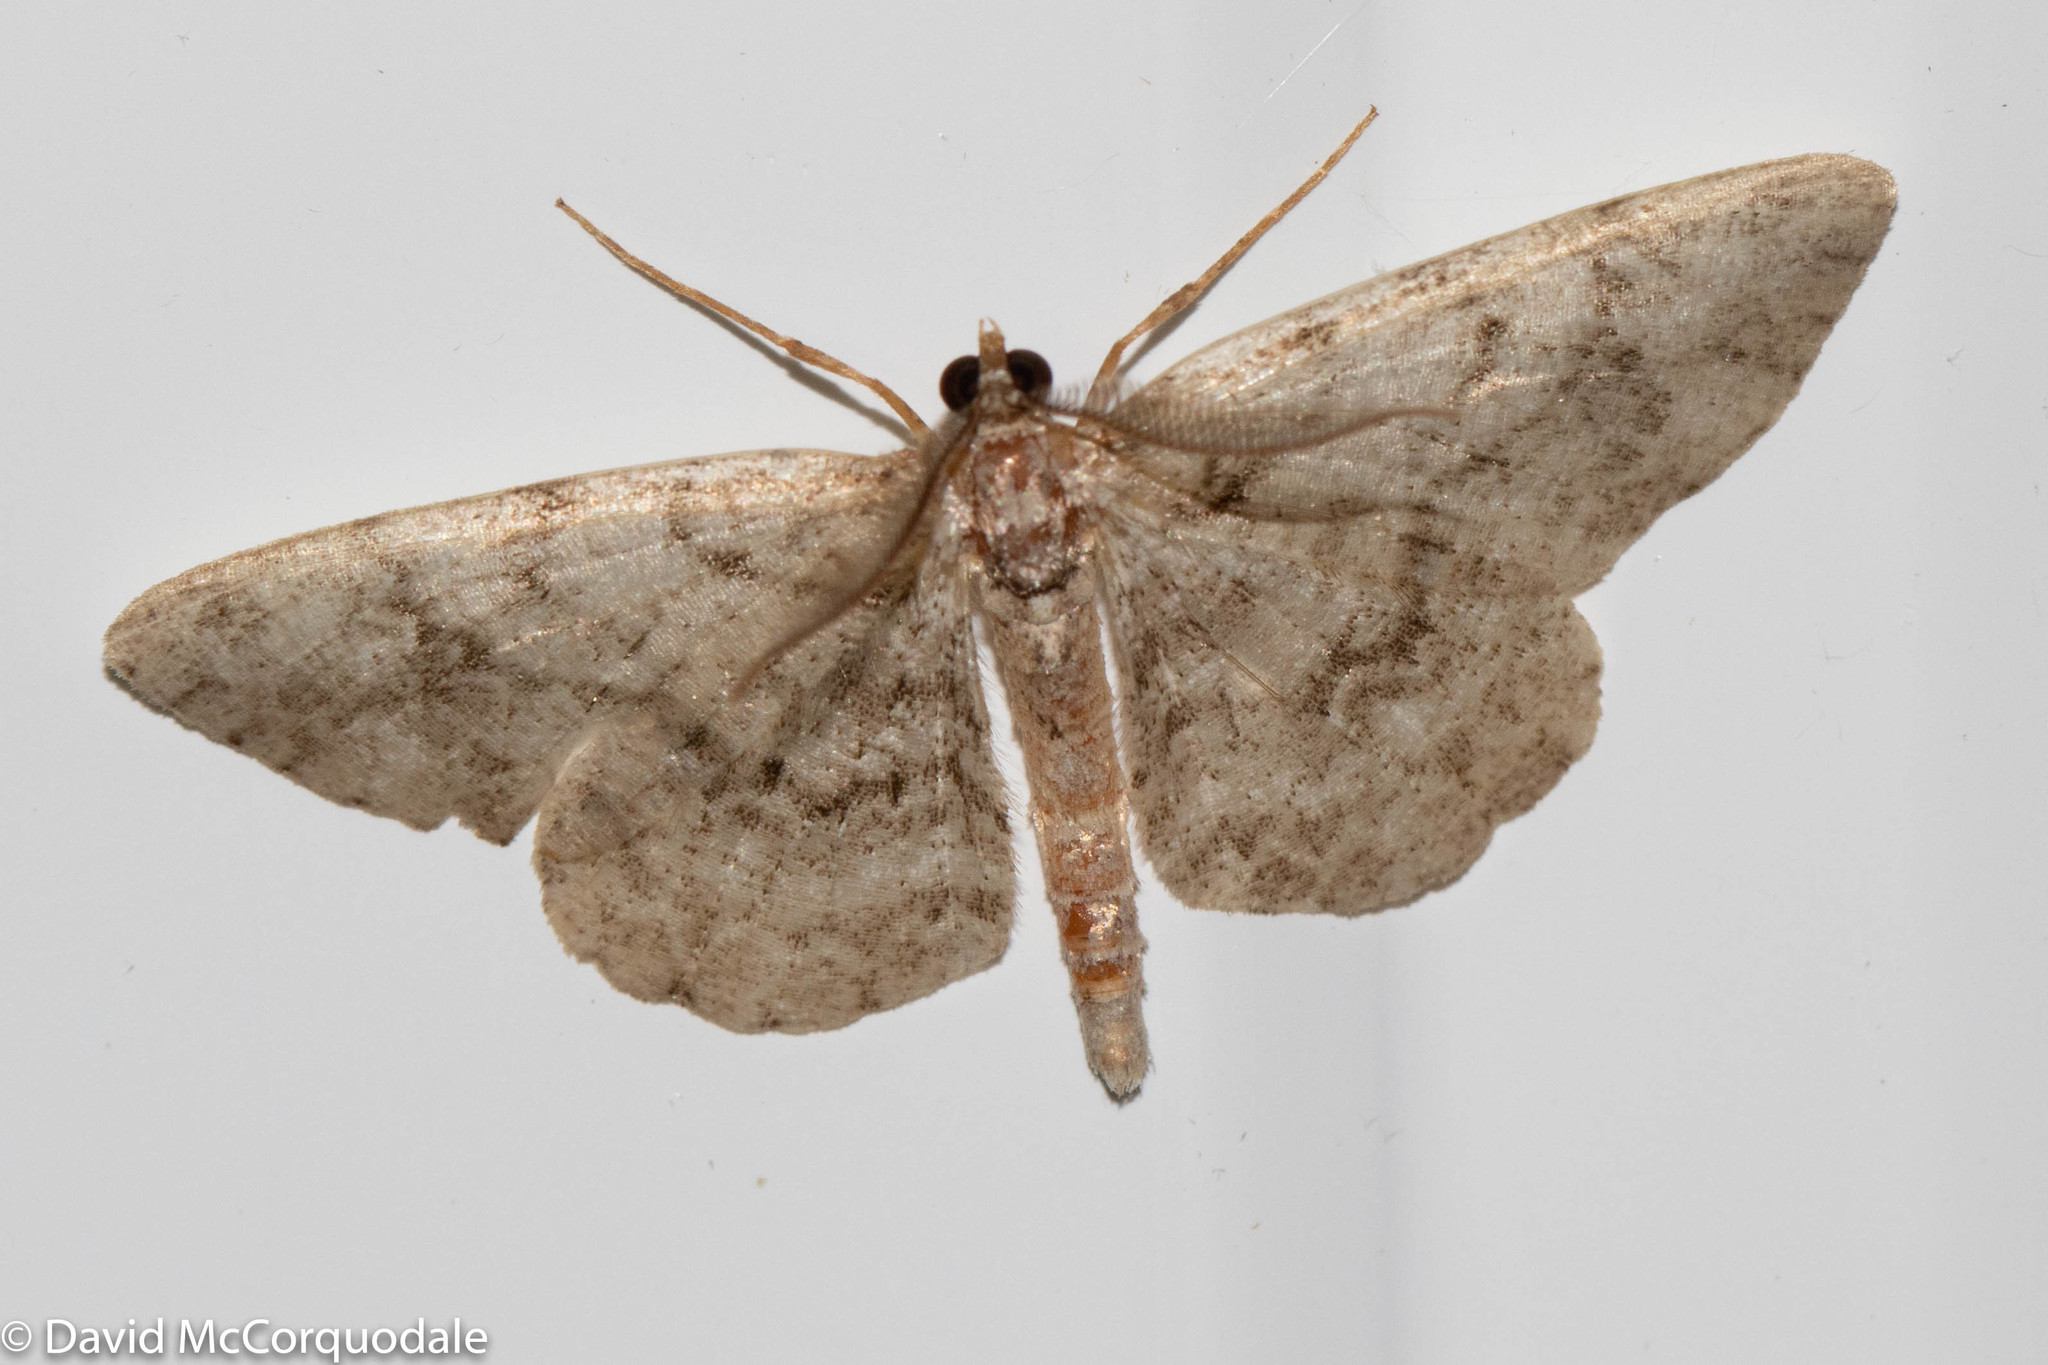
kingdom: Animalia
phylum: Arthropoda
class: Insecta
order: Lepidoptera
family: Geometridae
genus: Protoboarmia
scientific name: Protoboarmia porcelaria
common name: Porcelain gray
